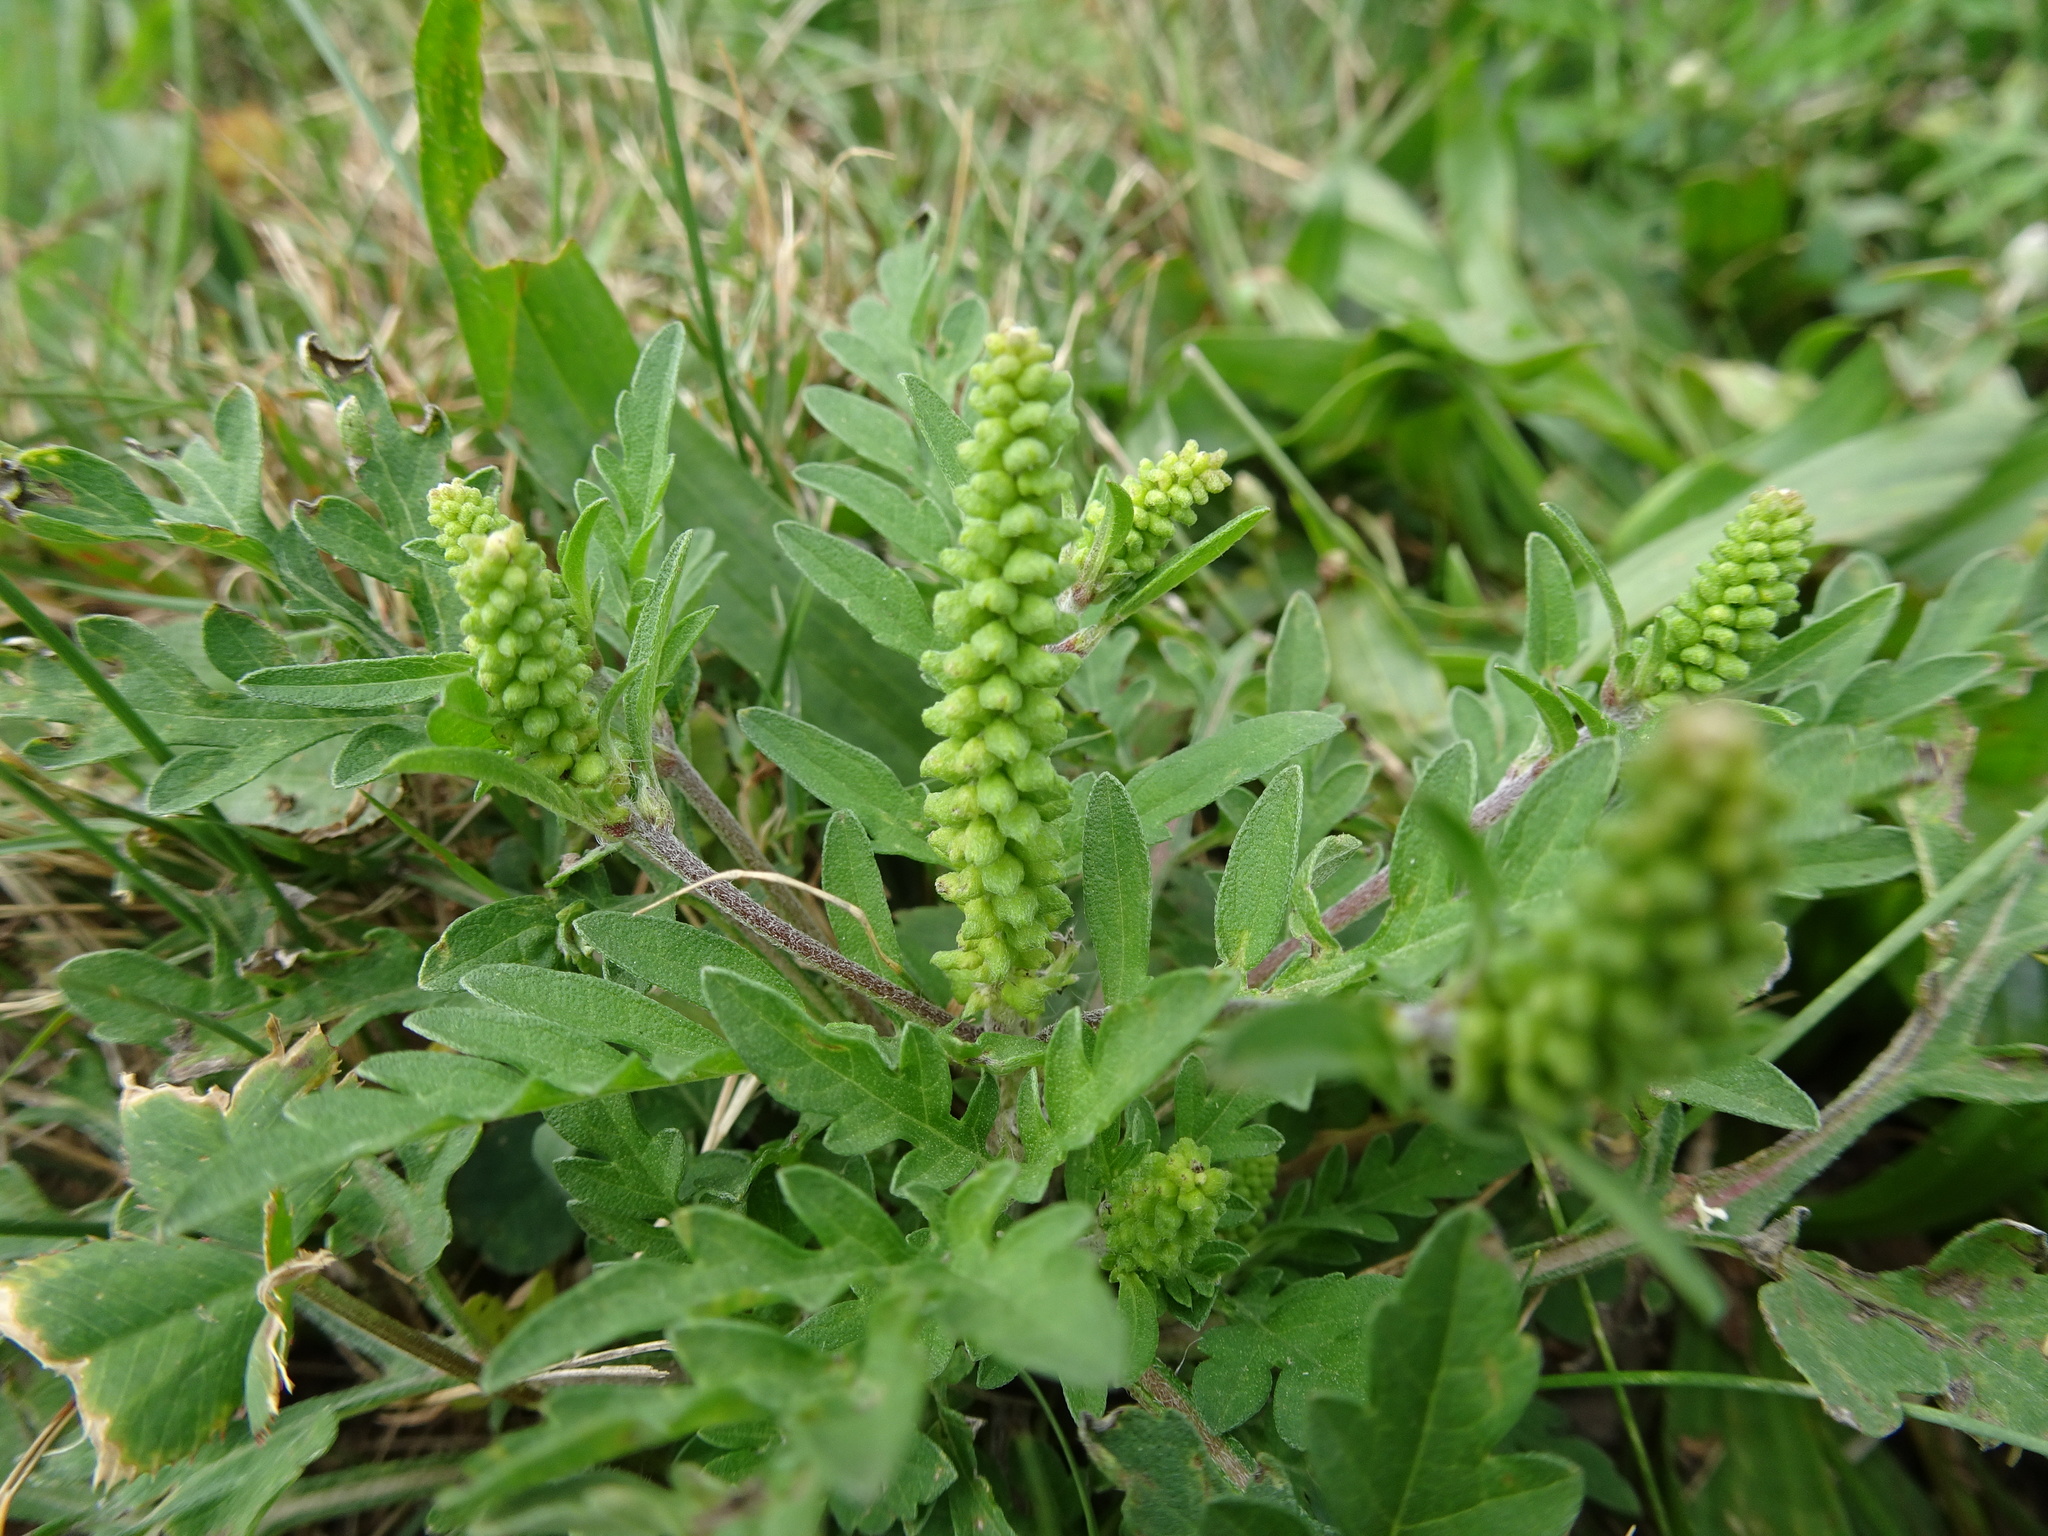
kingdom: Plantae
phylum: Tracheophyta
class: Magnoliopsida
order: Asterales
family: Asteraceae
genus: Ambrosia
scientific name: Ambrosia artemisiifolia
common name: Annual ragweed
